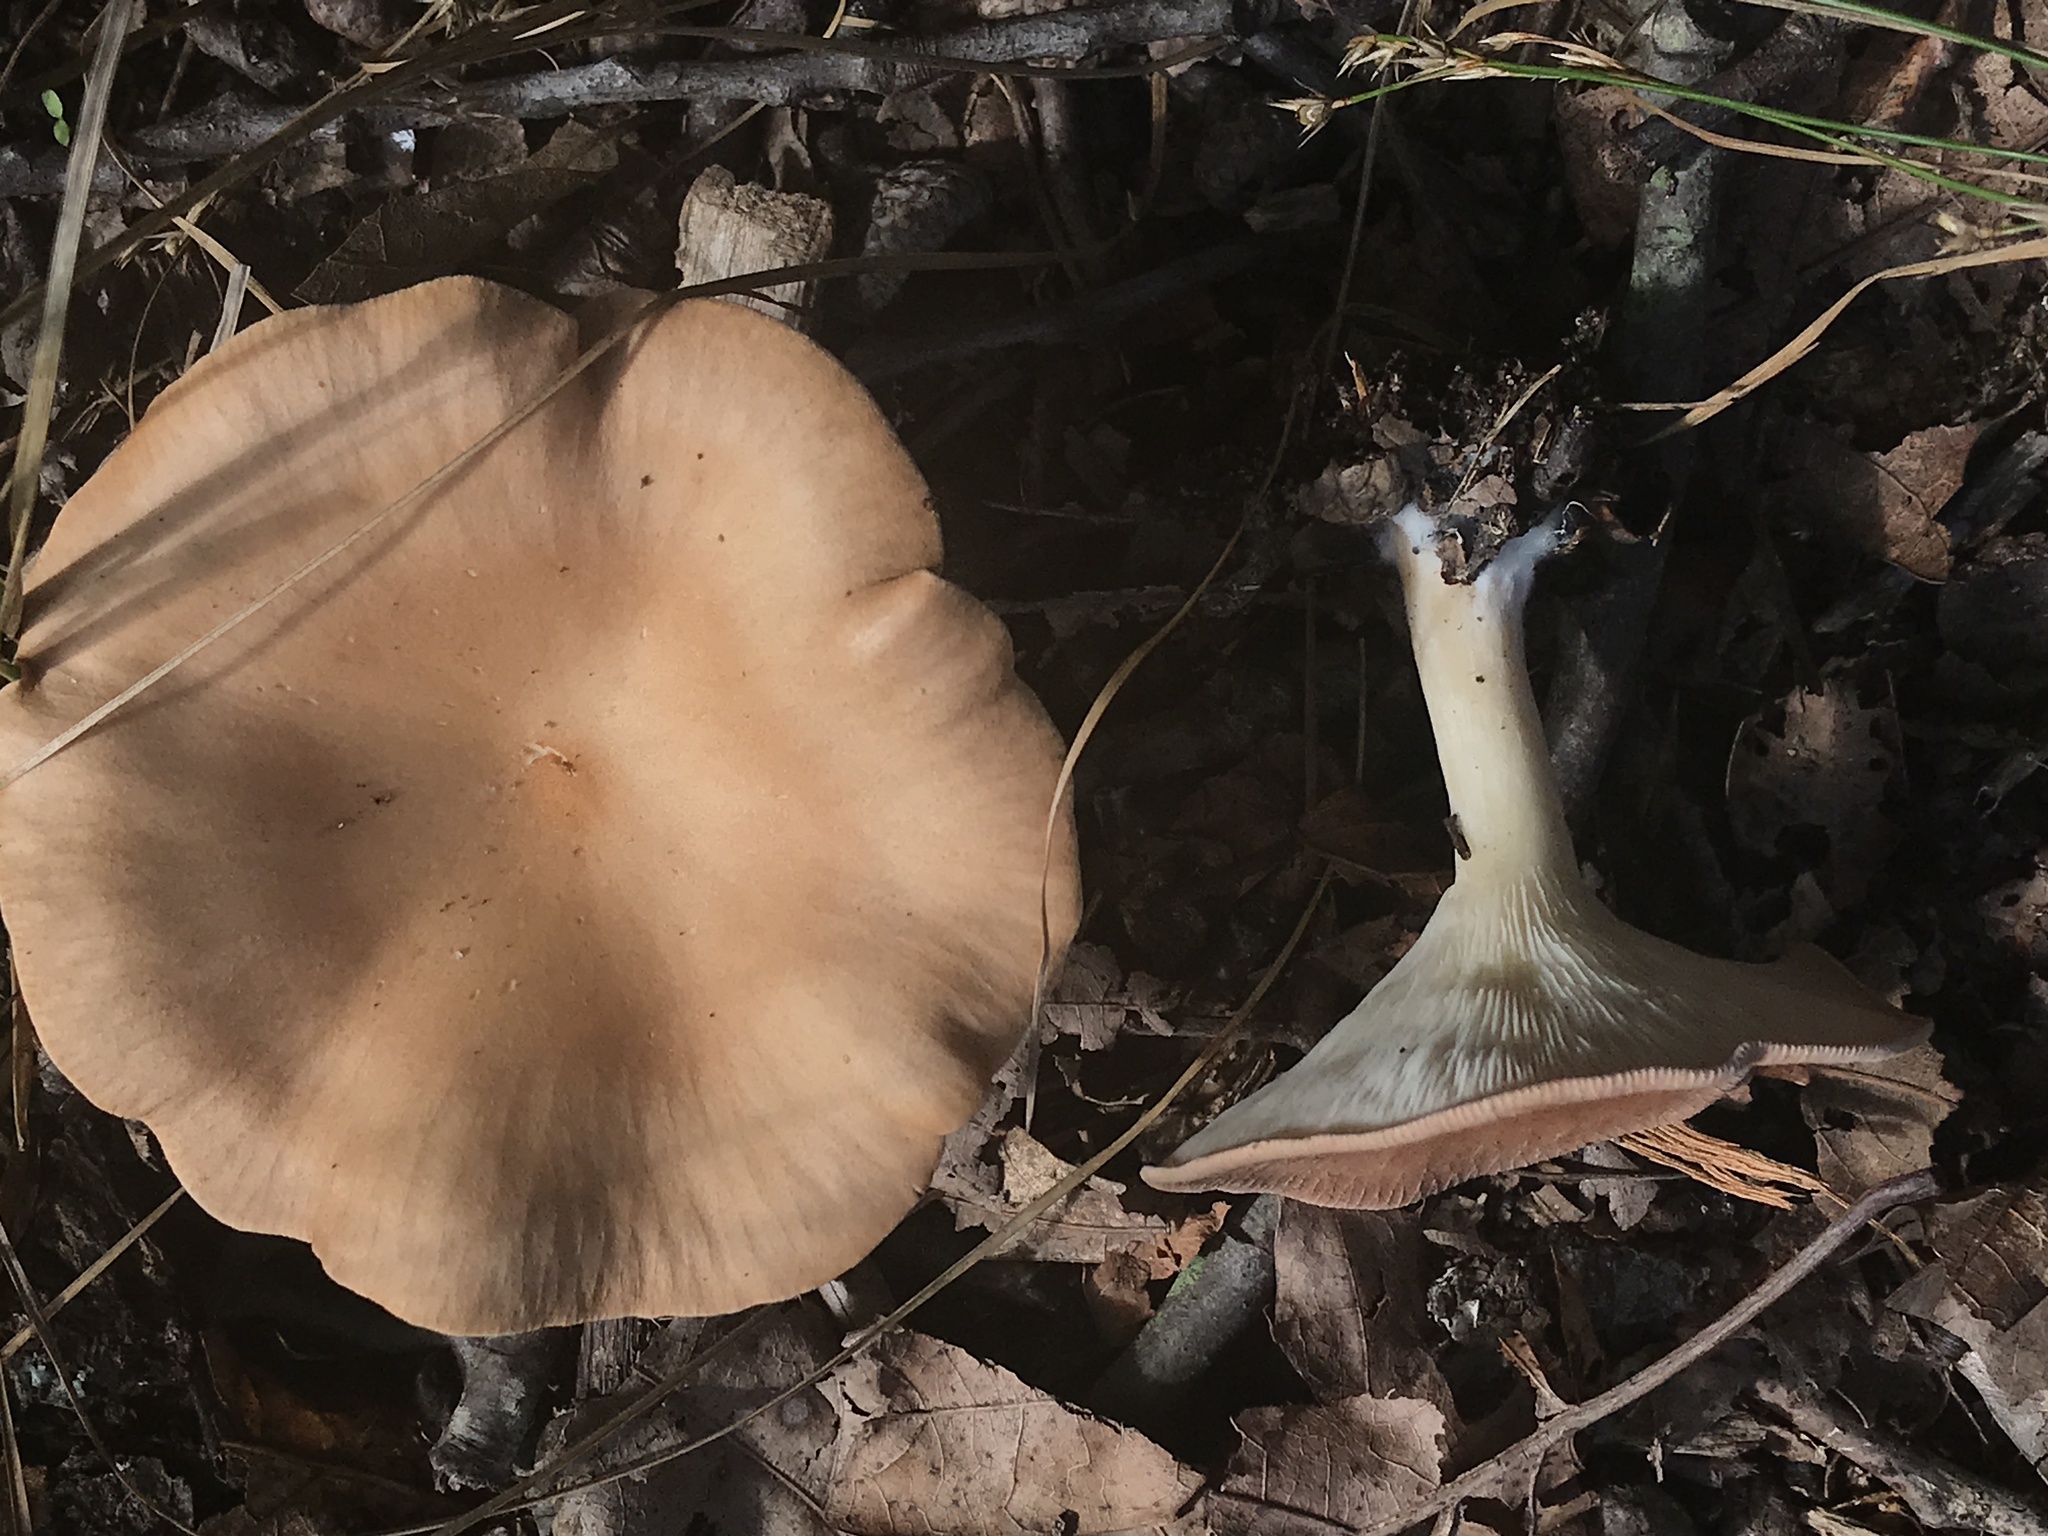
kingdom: Fungi
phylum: Basidiomycota
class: Agaricomycetes
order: Agaricales
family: Tricholomataceae
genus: Infundibulicybe
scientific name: Infundibulicybe gibba
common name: Common funnel
